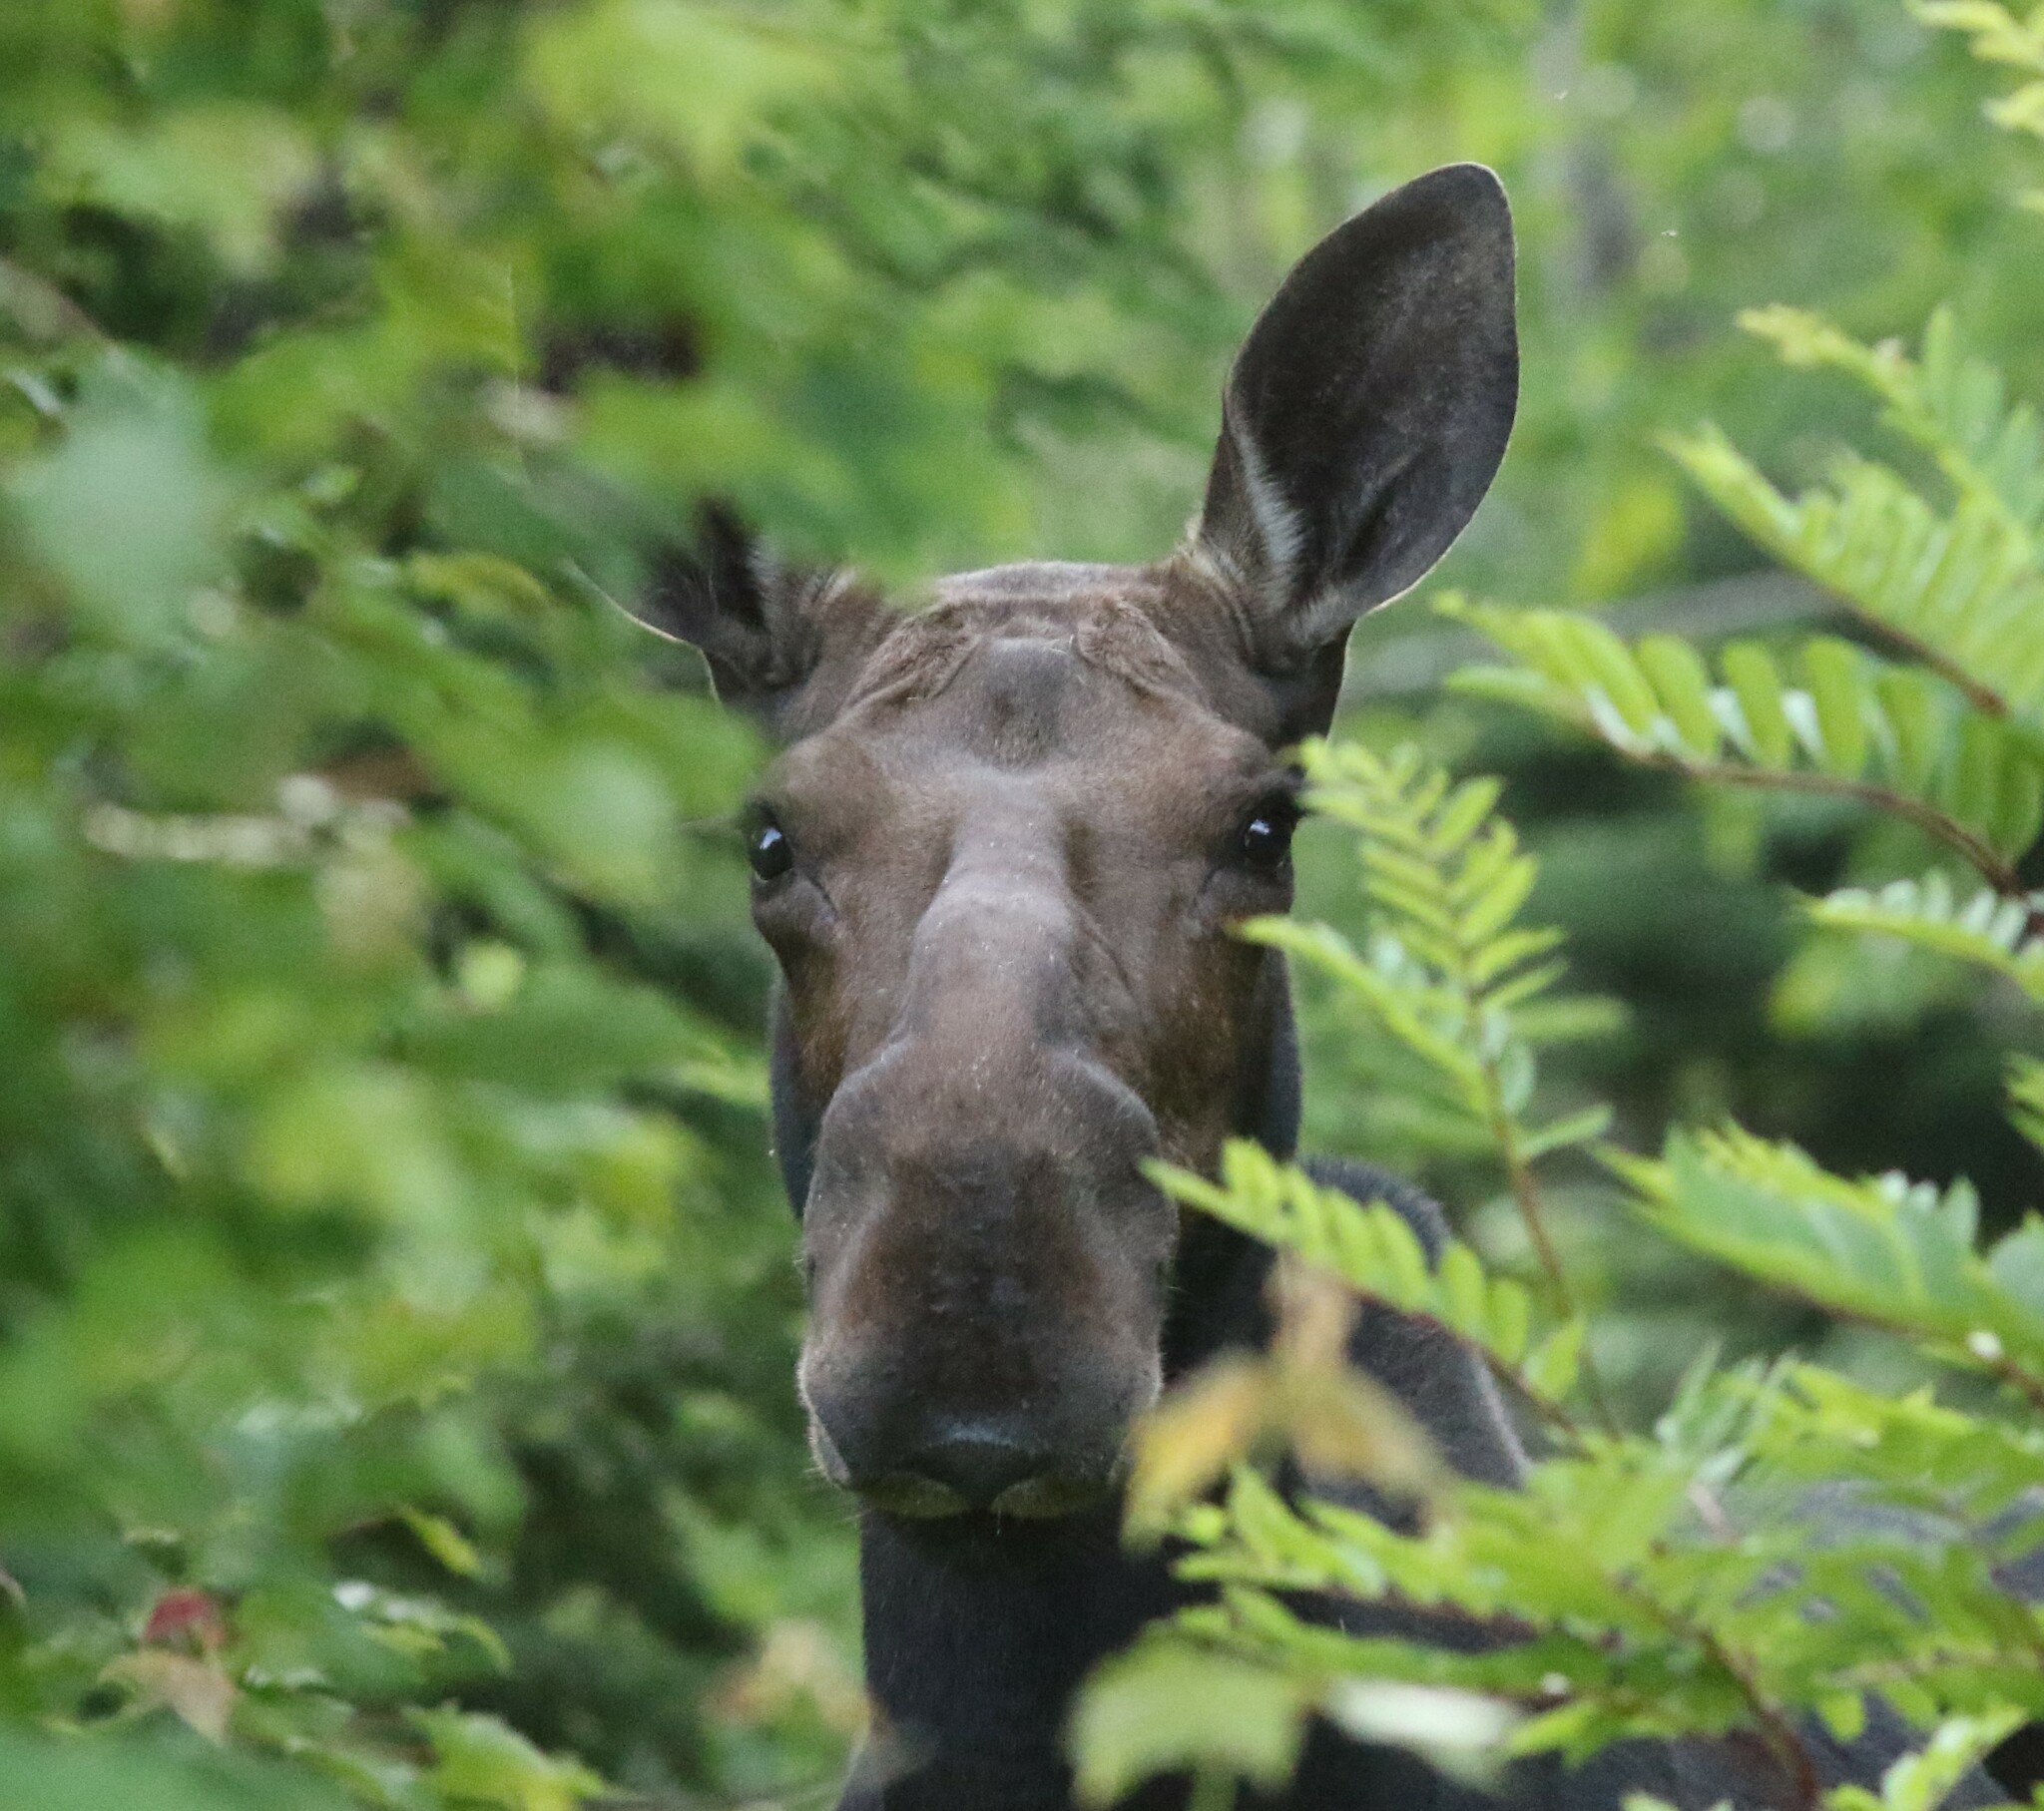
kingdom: Animalia
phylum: Chordata
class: Mammalia
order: Artiodactyla
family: Cervidae
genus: Alces
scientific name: Alces alces
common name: Moose
